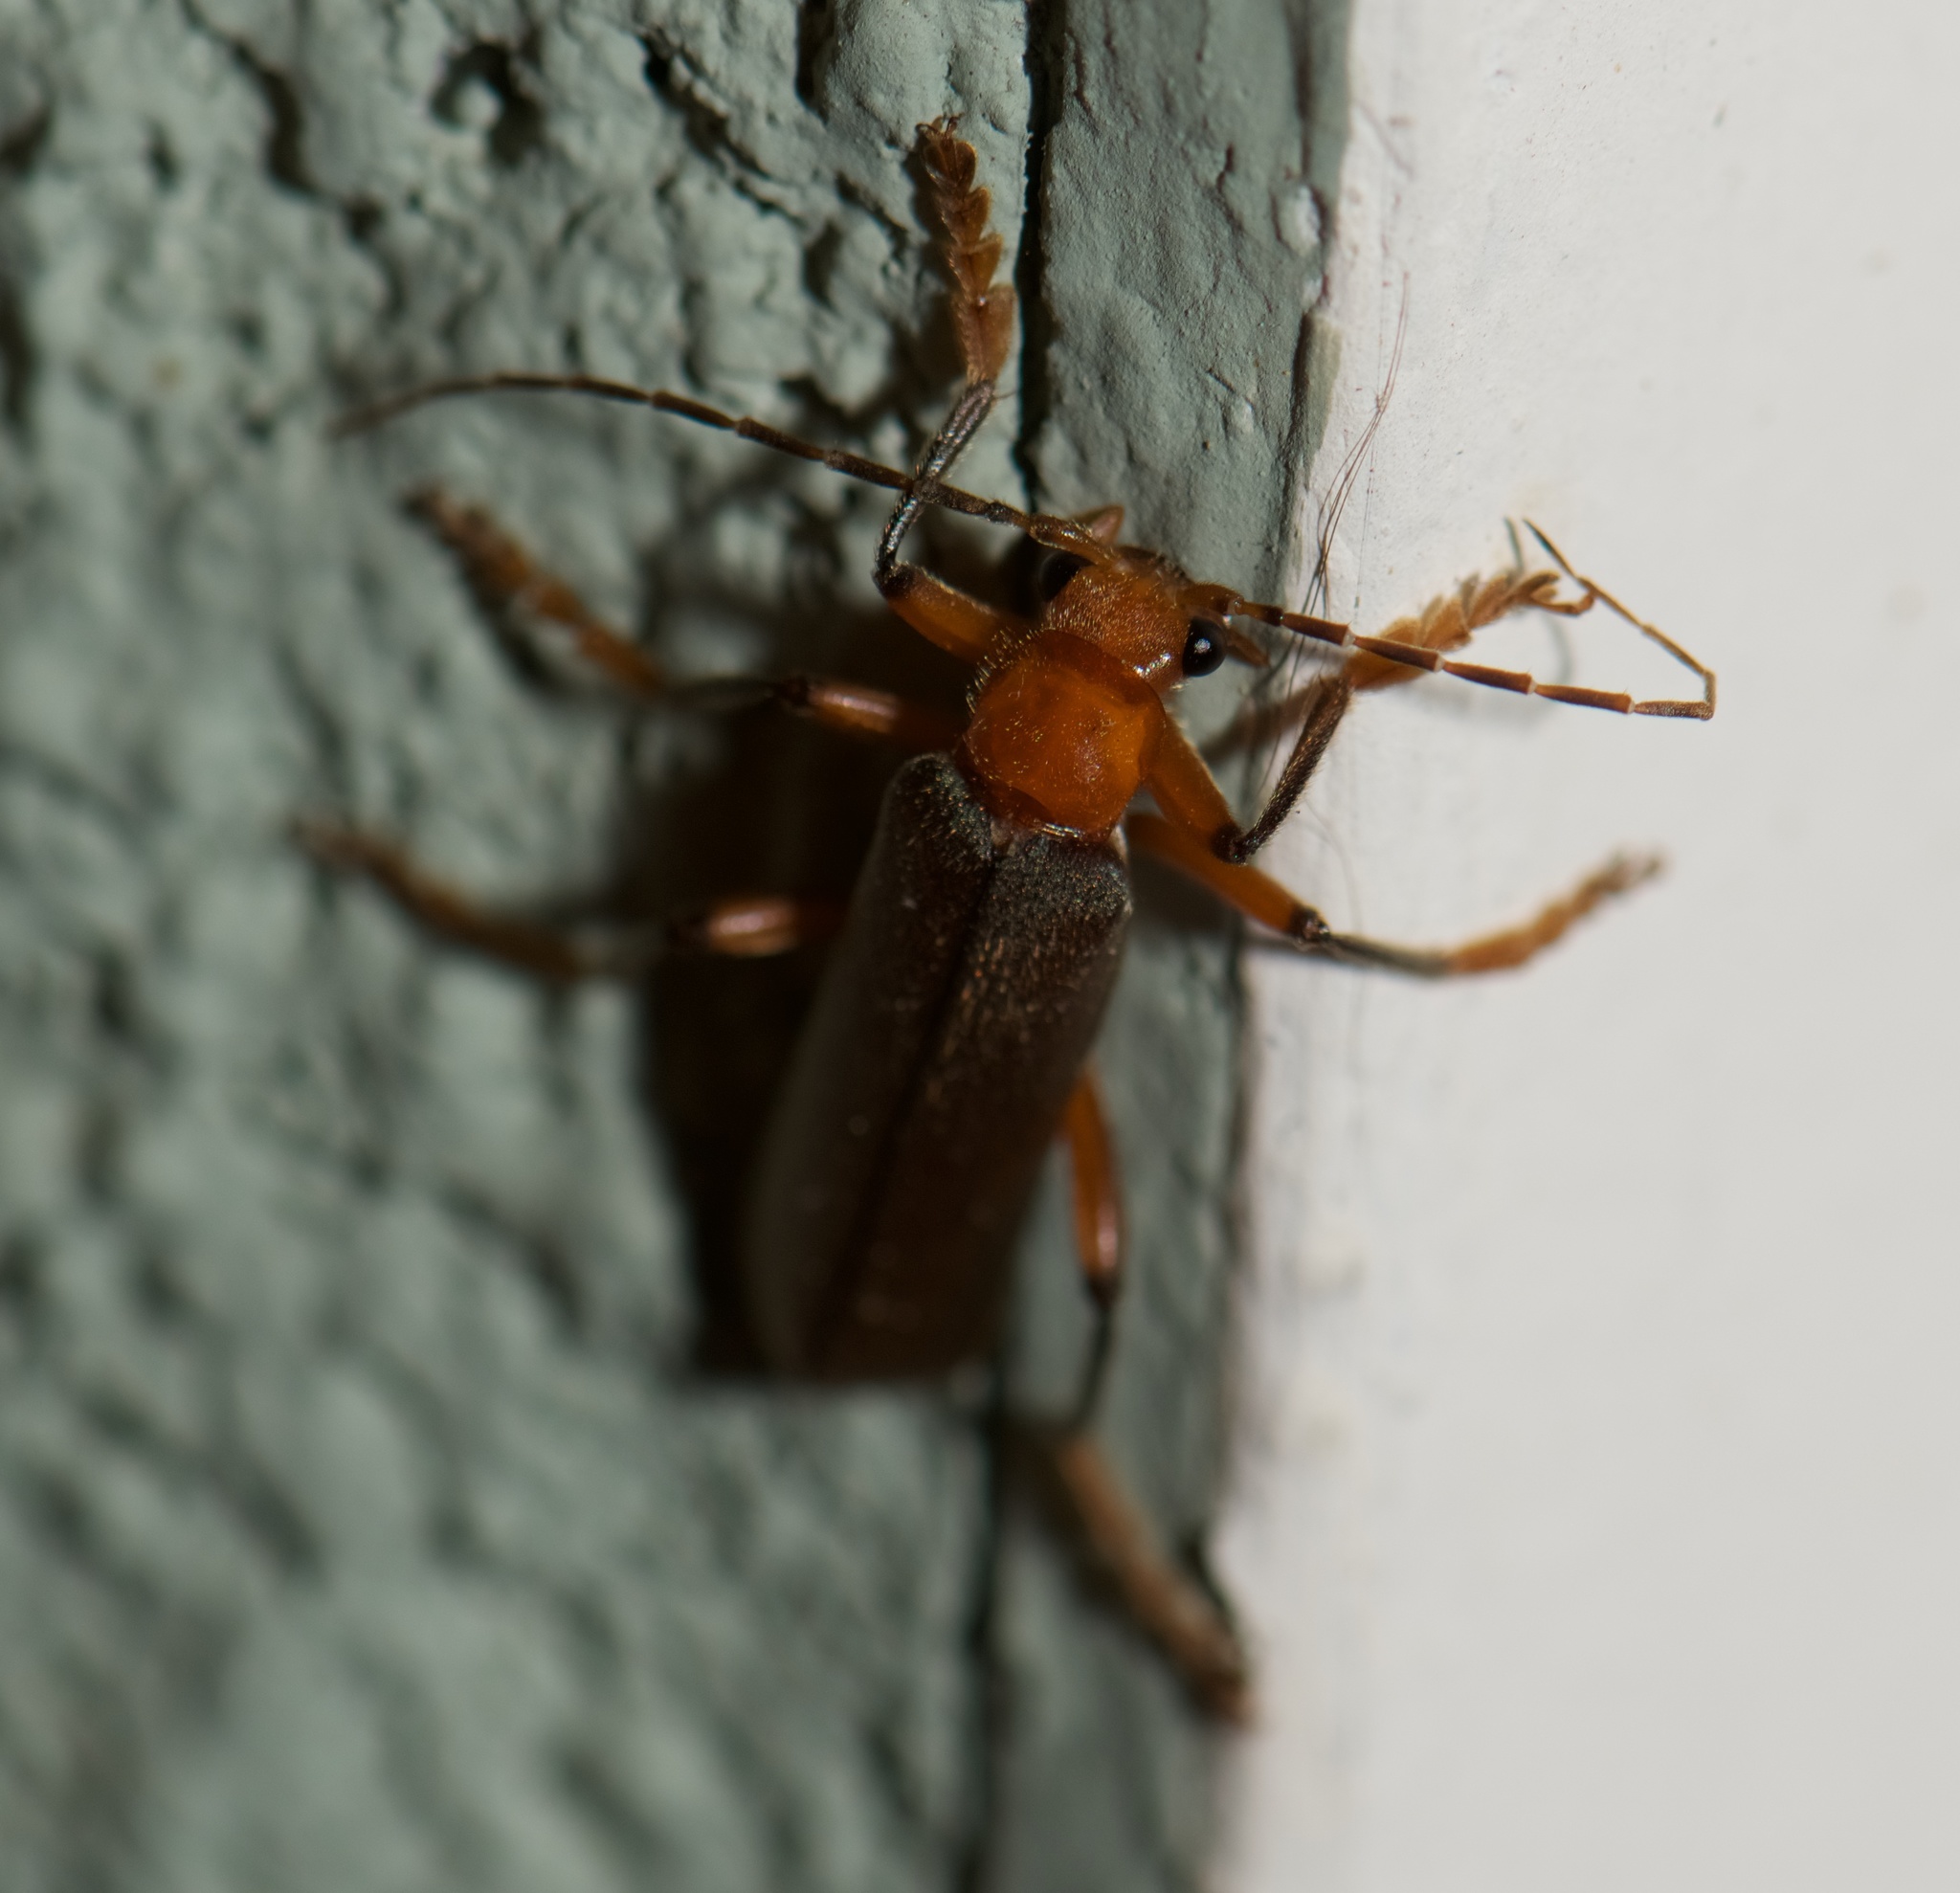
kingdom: Animalia
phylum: Arthropoda
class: Insecta
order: Coleoptera
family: Cantharidae
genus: Pacificanthia
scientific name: Pacificanthia consors
